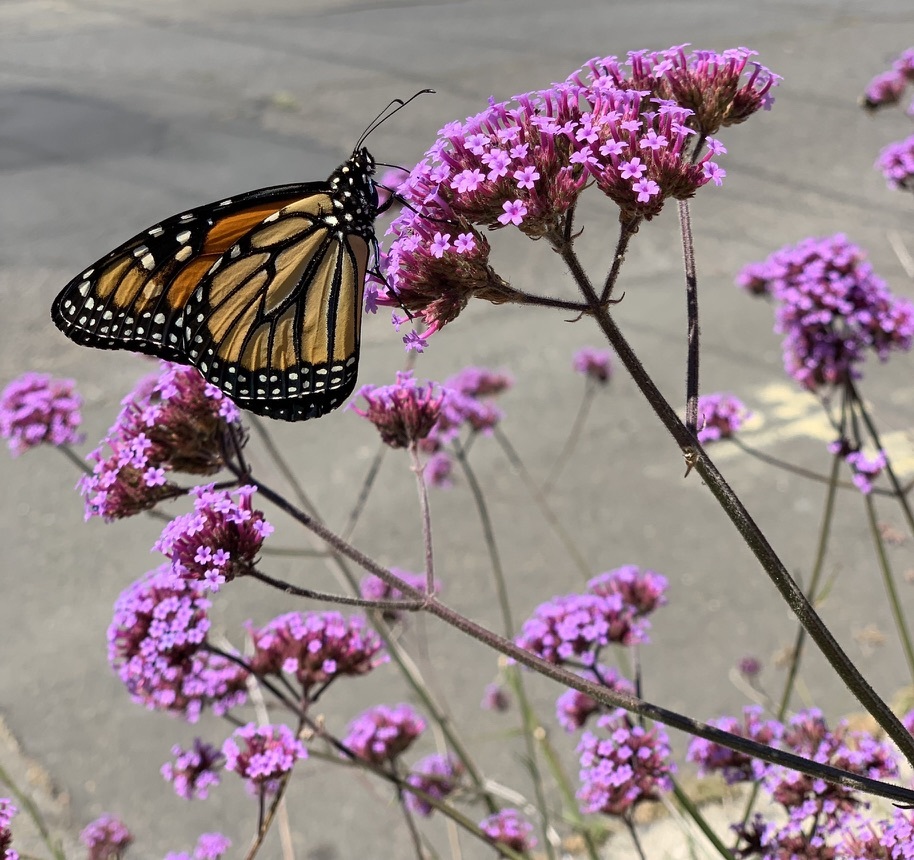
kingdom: Animalia
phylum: Arthropoda
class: Insecta
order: Lepidoptera
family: Nymphalidae
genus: Danaus
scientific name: Danaus plexippus
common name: Monarch
